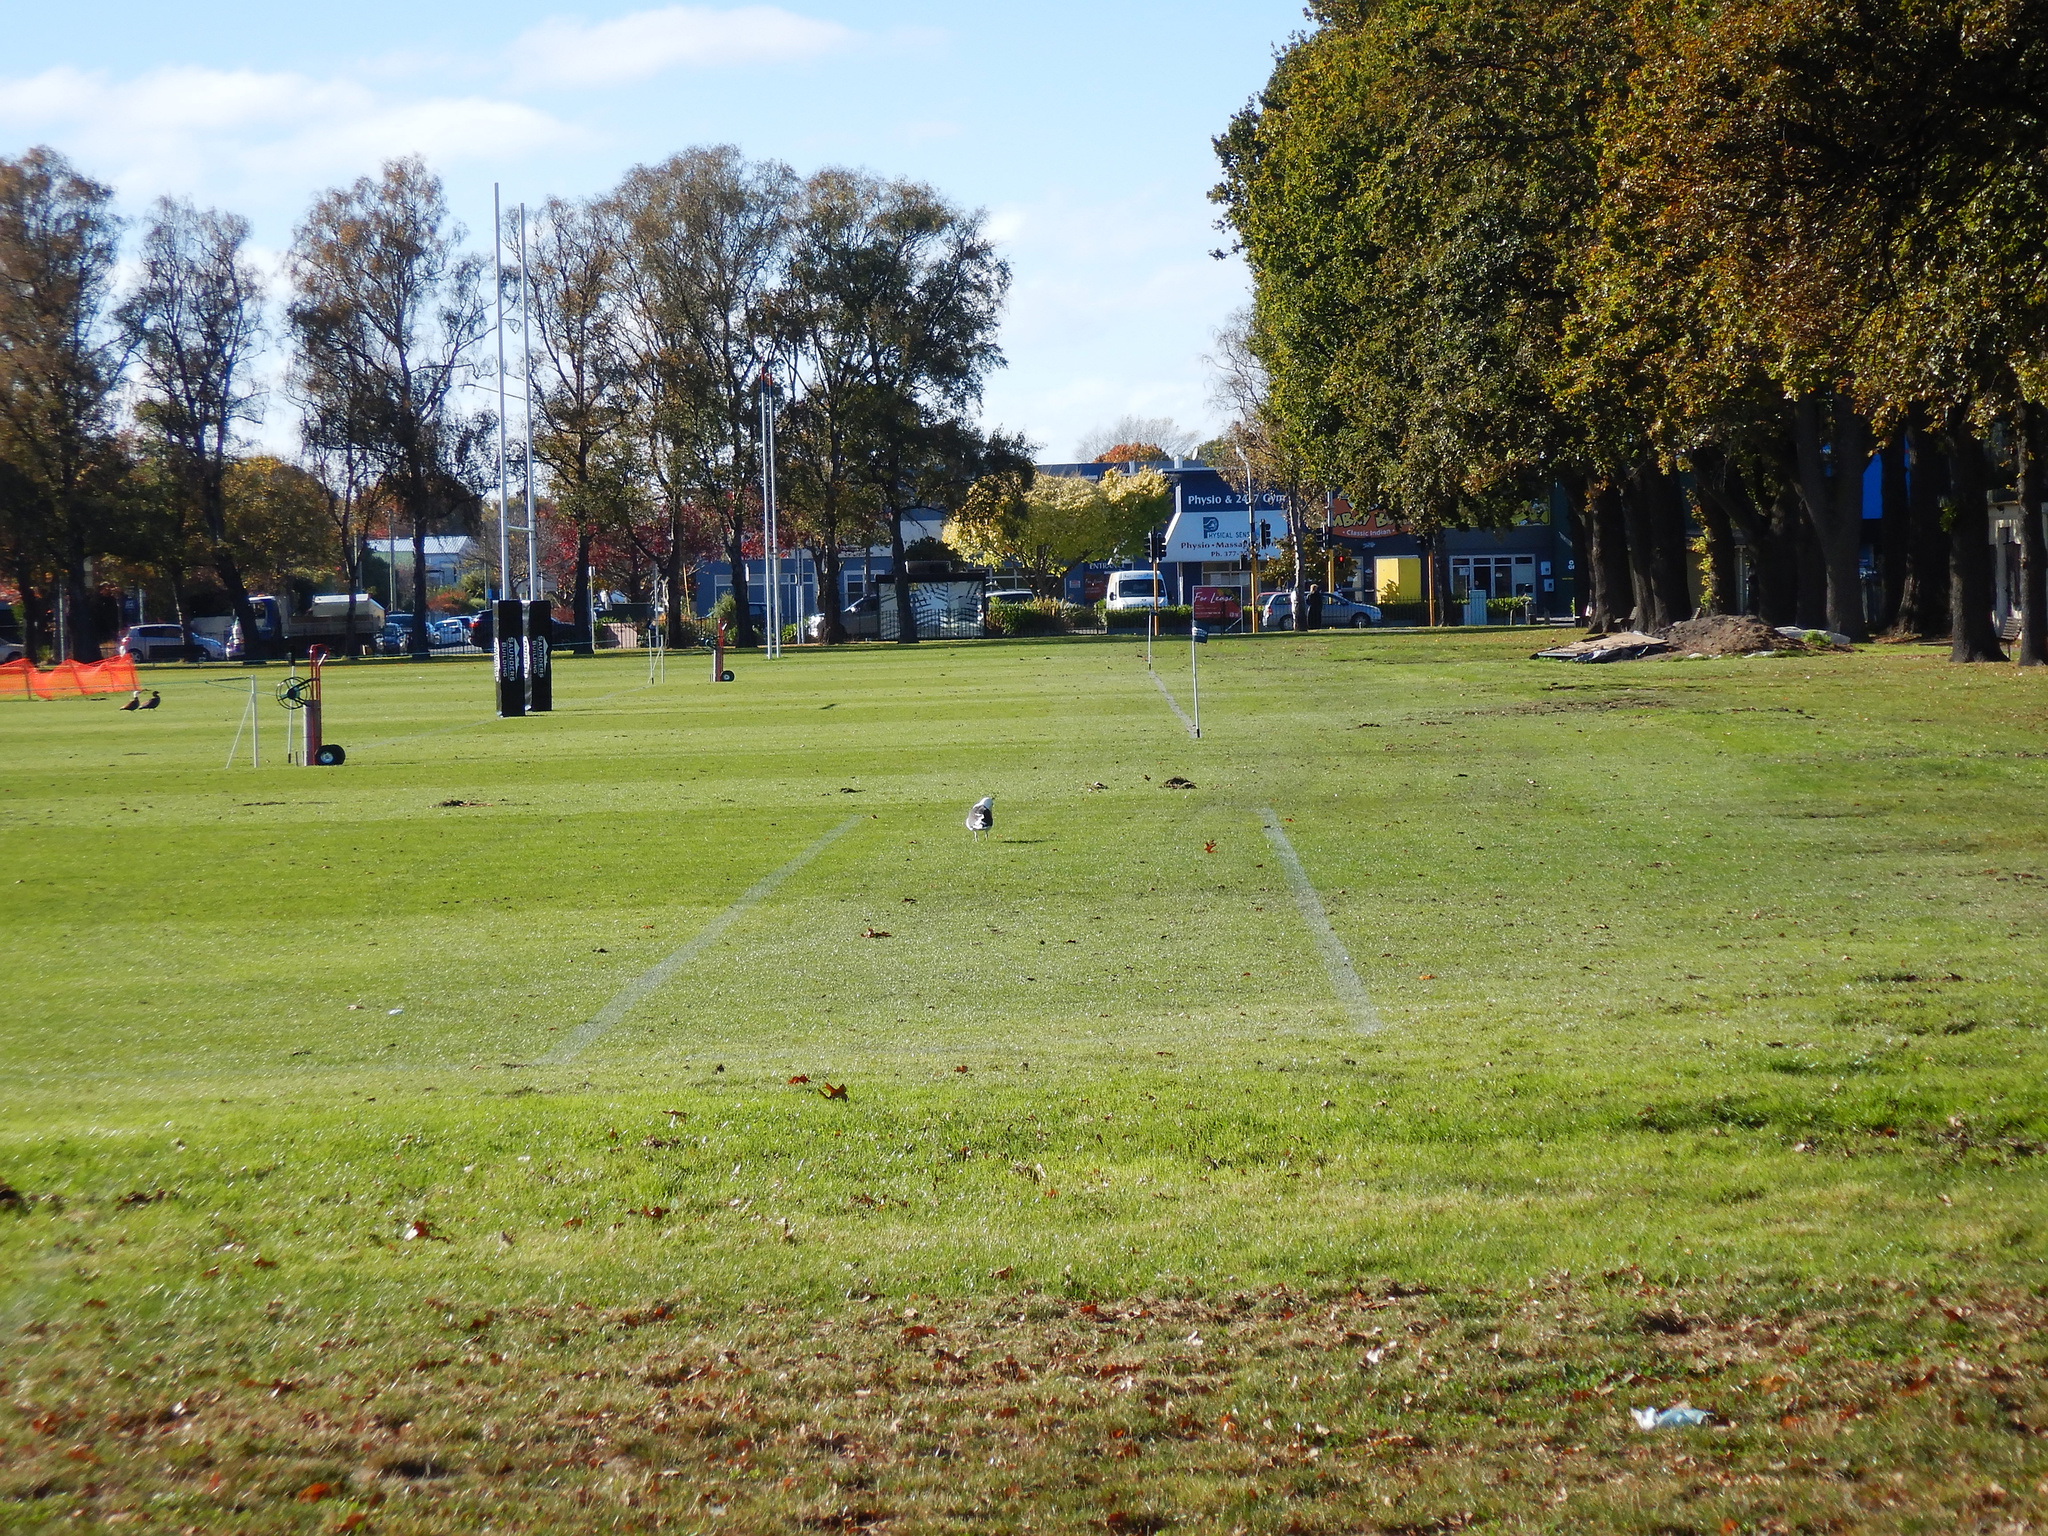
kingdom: Animalia
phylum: Chordata
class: Aves
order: Charadriiformes
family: Laridae
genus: Larus
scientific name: Larus dominicanus
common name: Kelp gull
